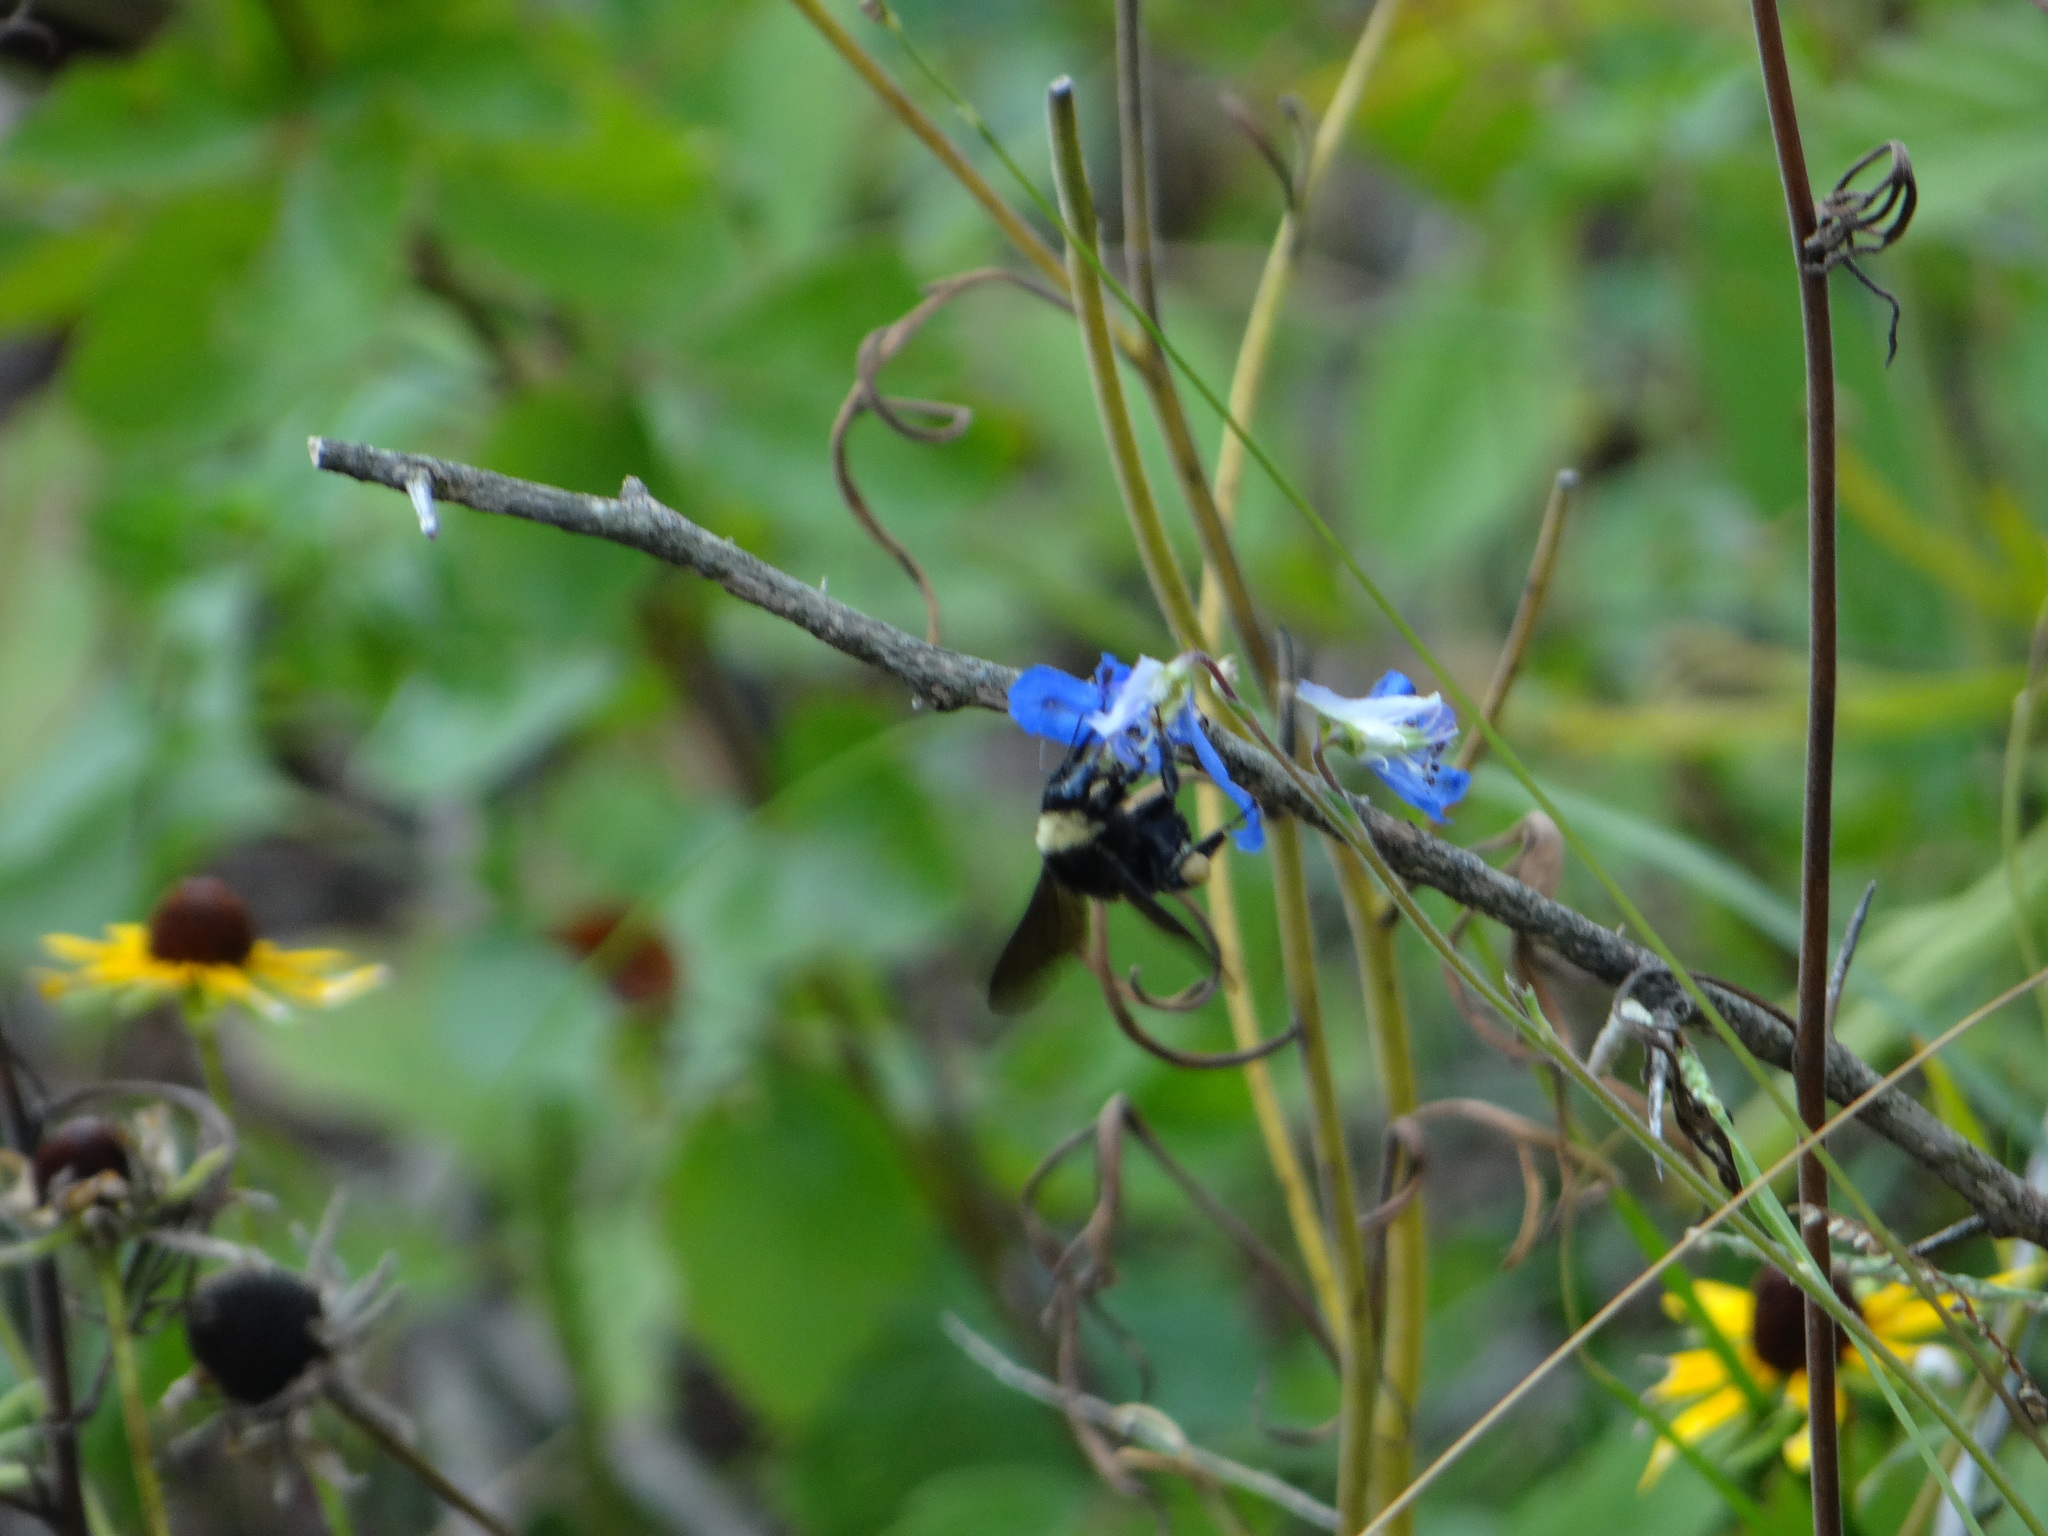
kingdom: Animalia
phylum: Arthropoda
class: Insecta
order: Hymenoptera
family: Apidae
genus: Bombus
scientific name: Bombus pensylvanicus
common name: Bumble bee
